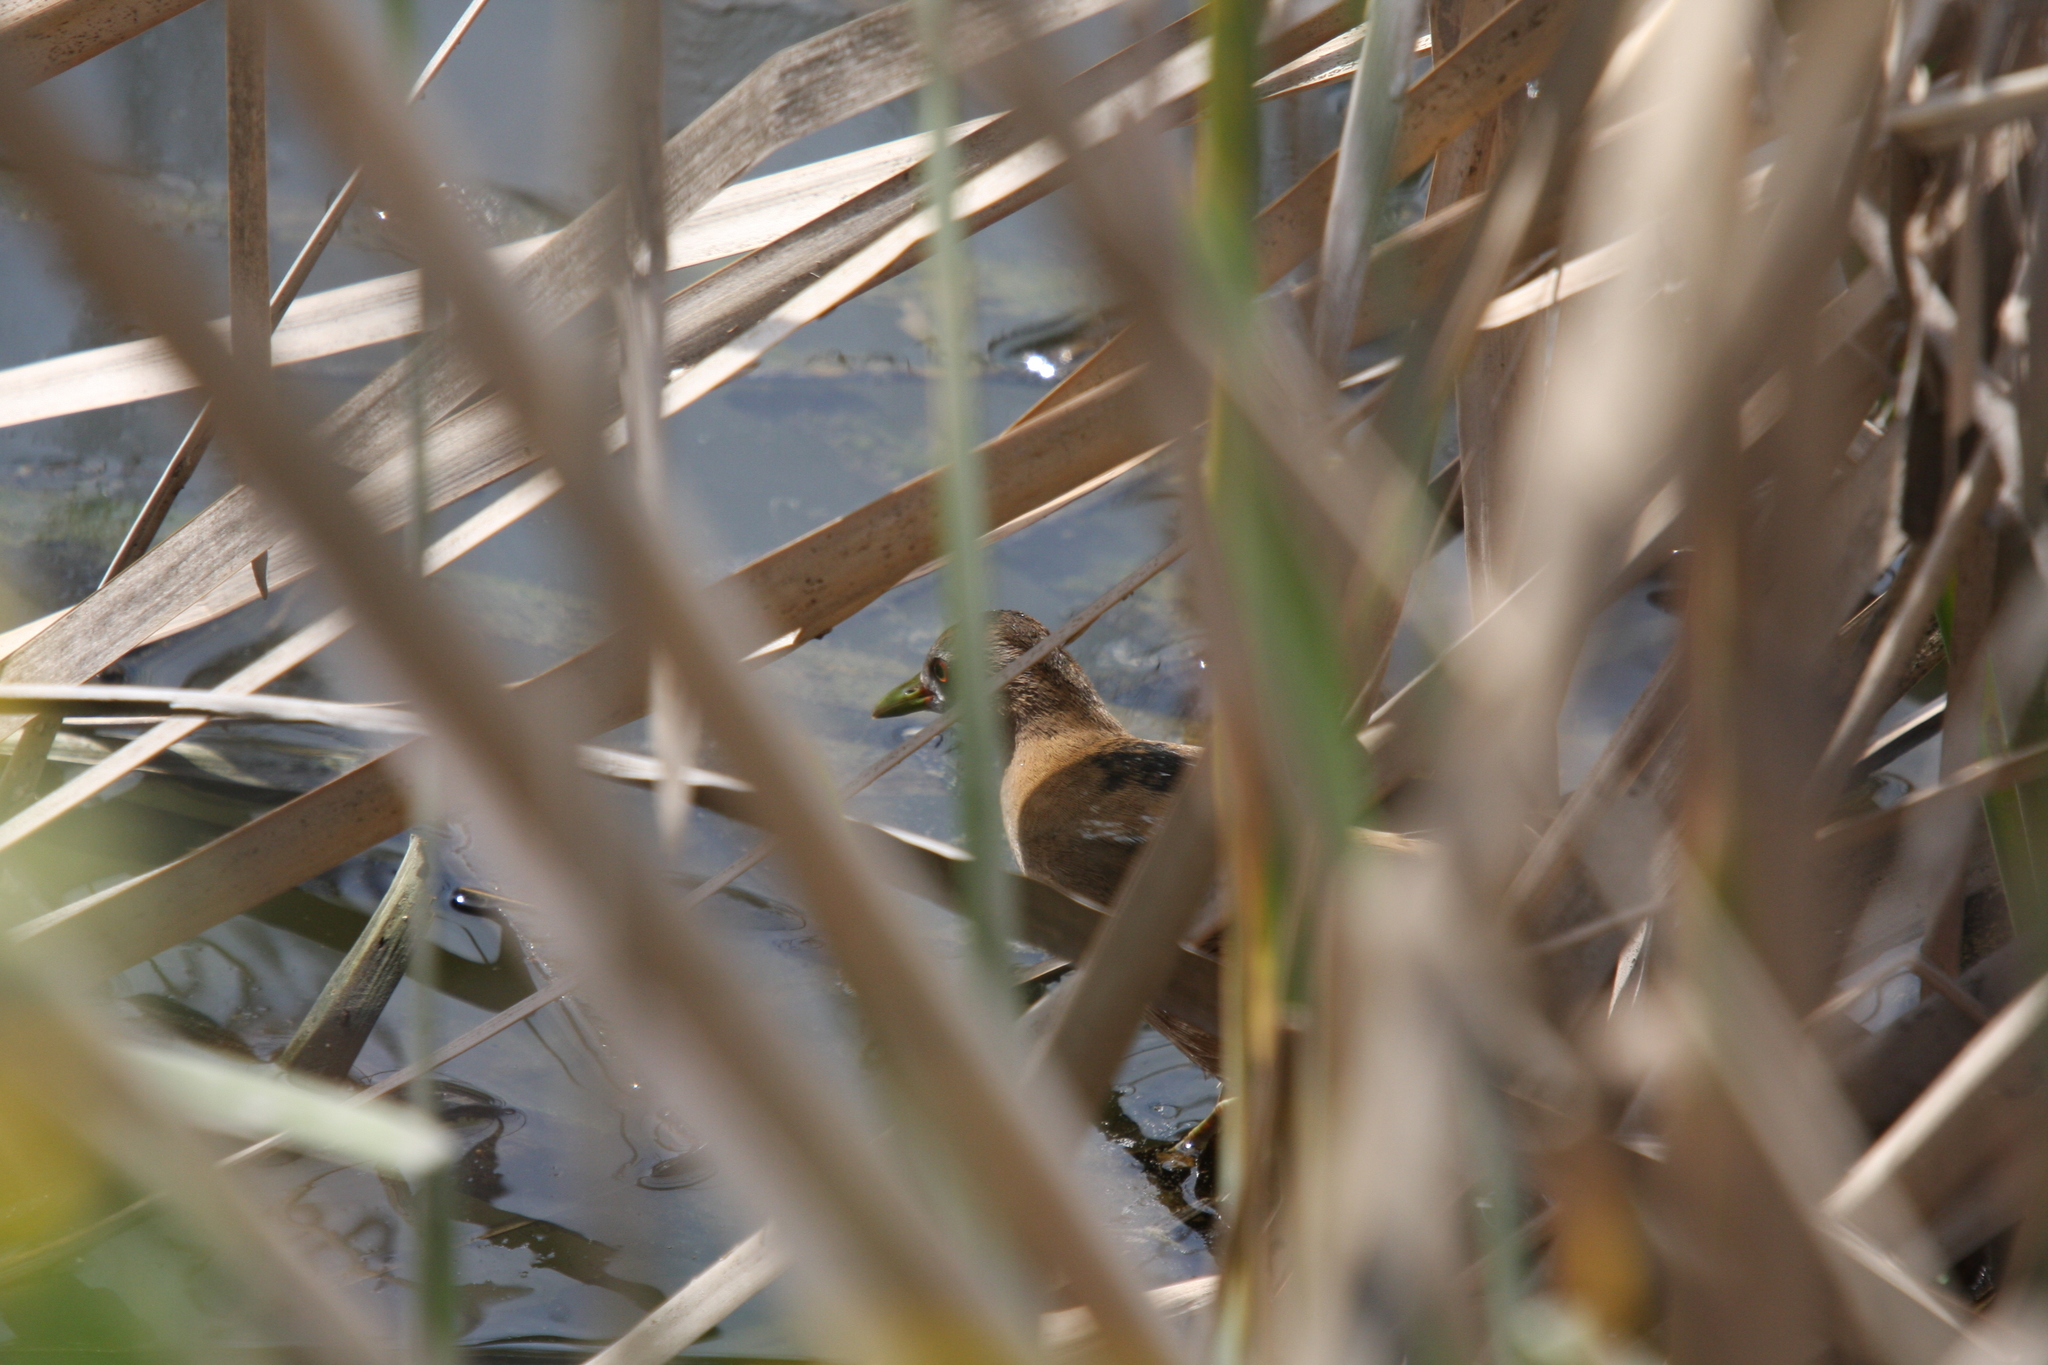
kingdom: Animalia
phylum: Chordata
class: Aves
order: Gruiformes
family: Rallidae
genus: Porzana
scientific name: Porzana parva
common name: Little crake
